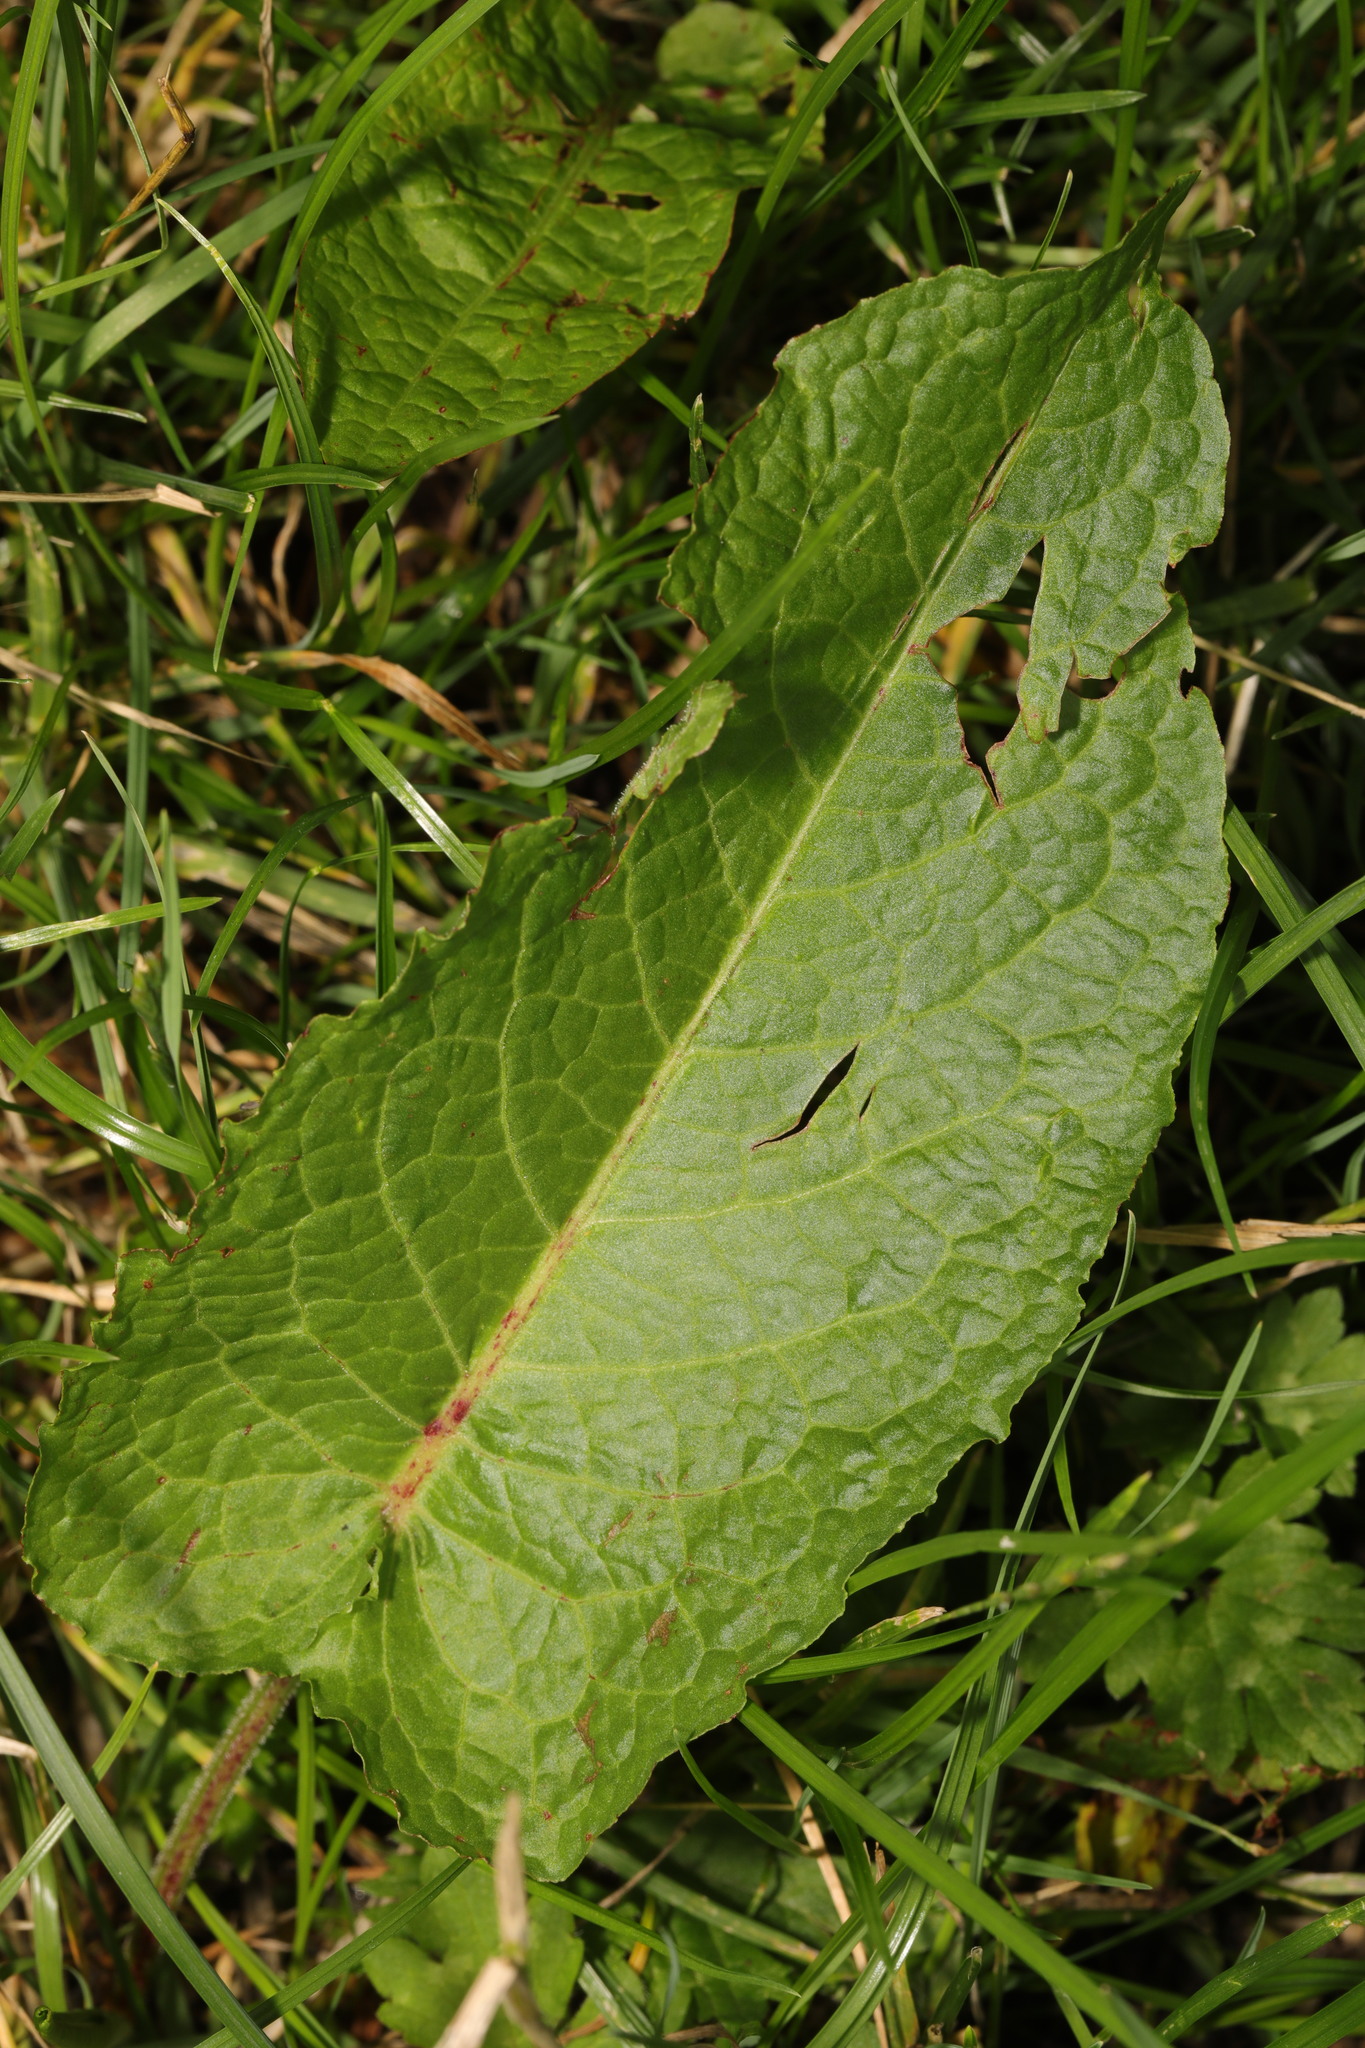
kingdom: Plantae
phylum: Tracheophyta
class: Magnoliopsida
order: Caryophyllales
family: Polygonaceae
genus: Rumex
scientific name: Rumex obtusifolius
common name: Bitter dock
